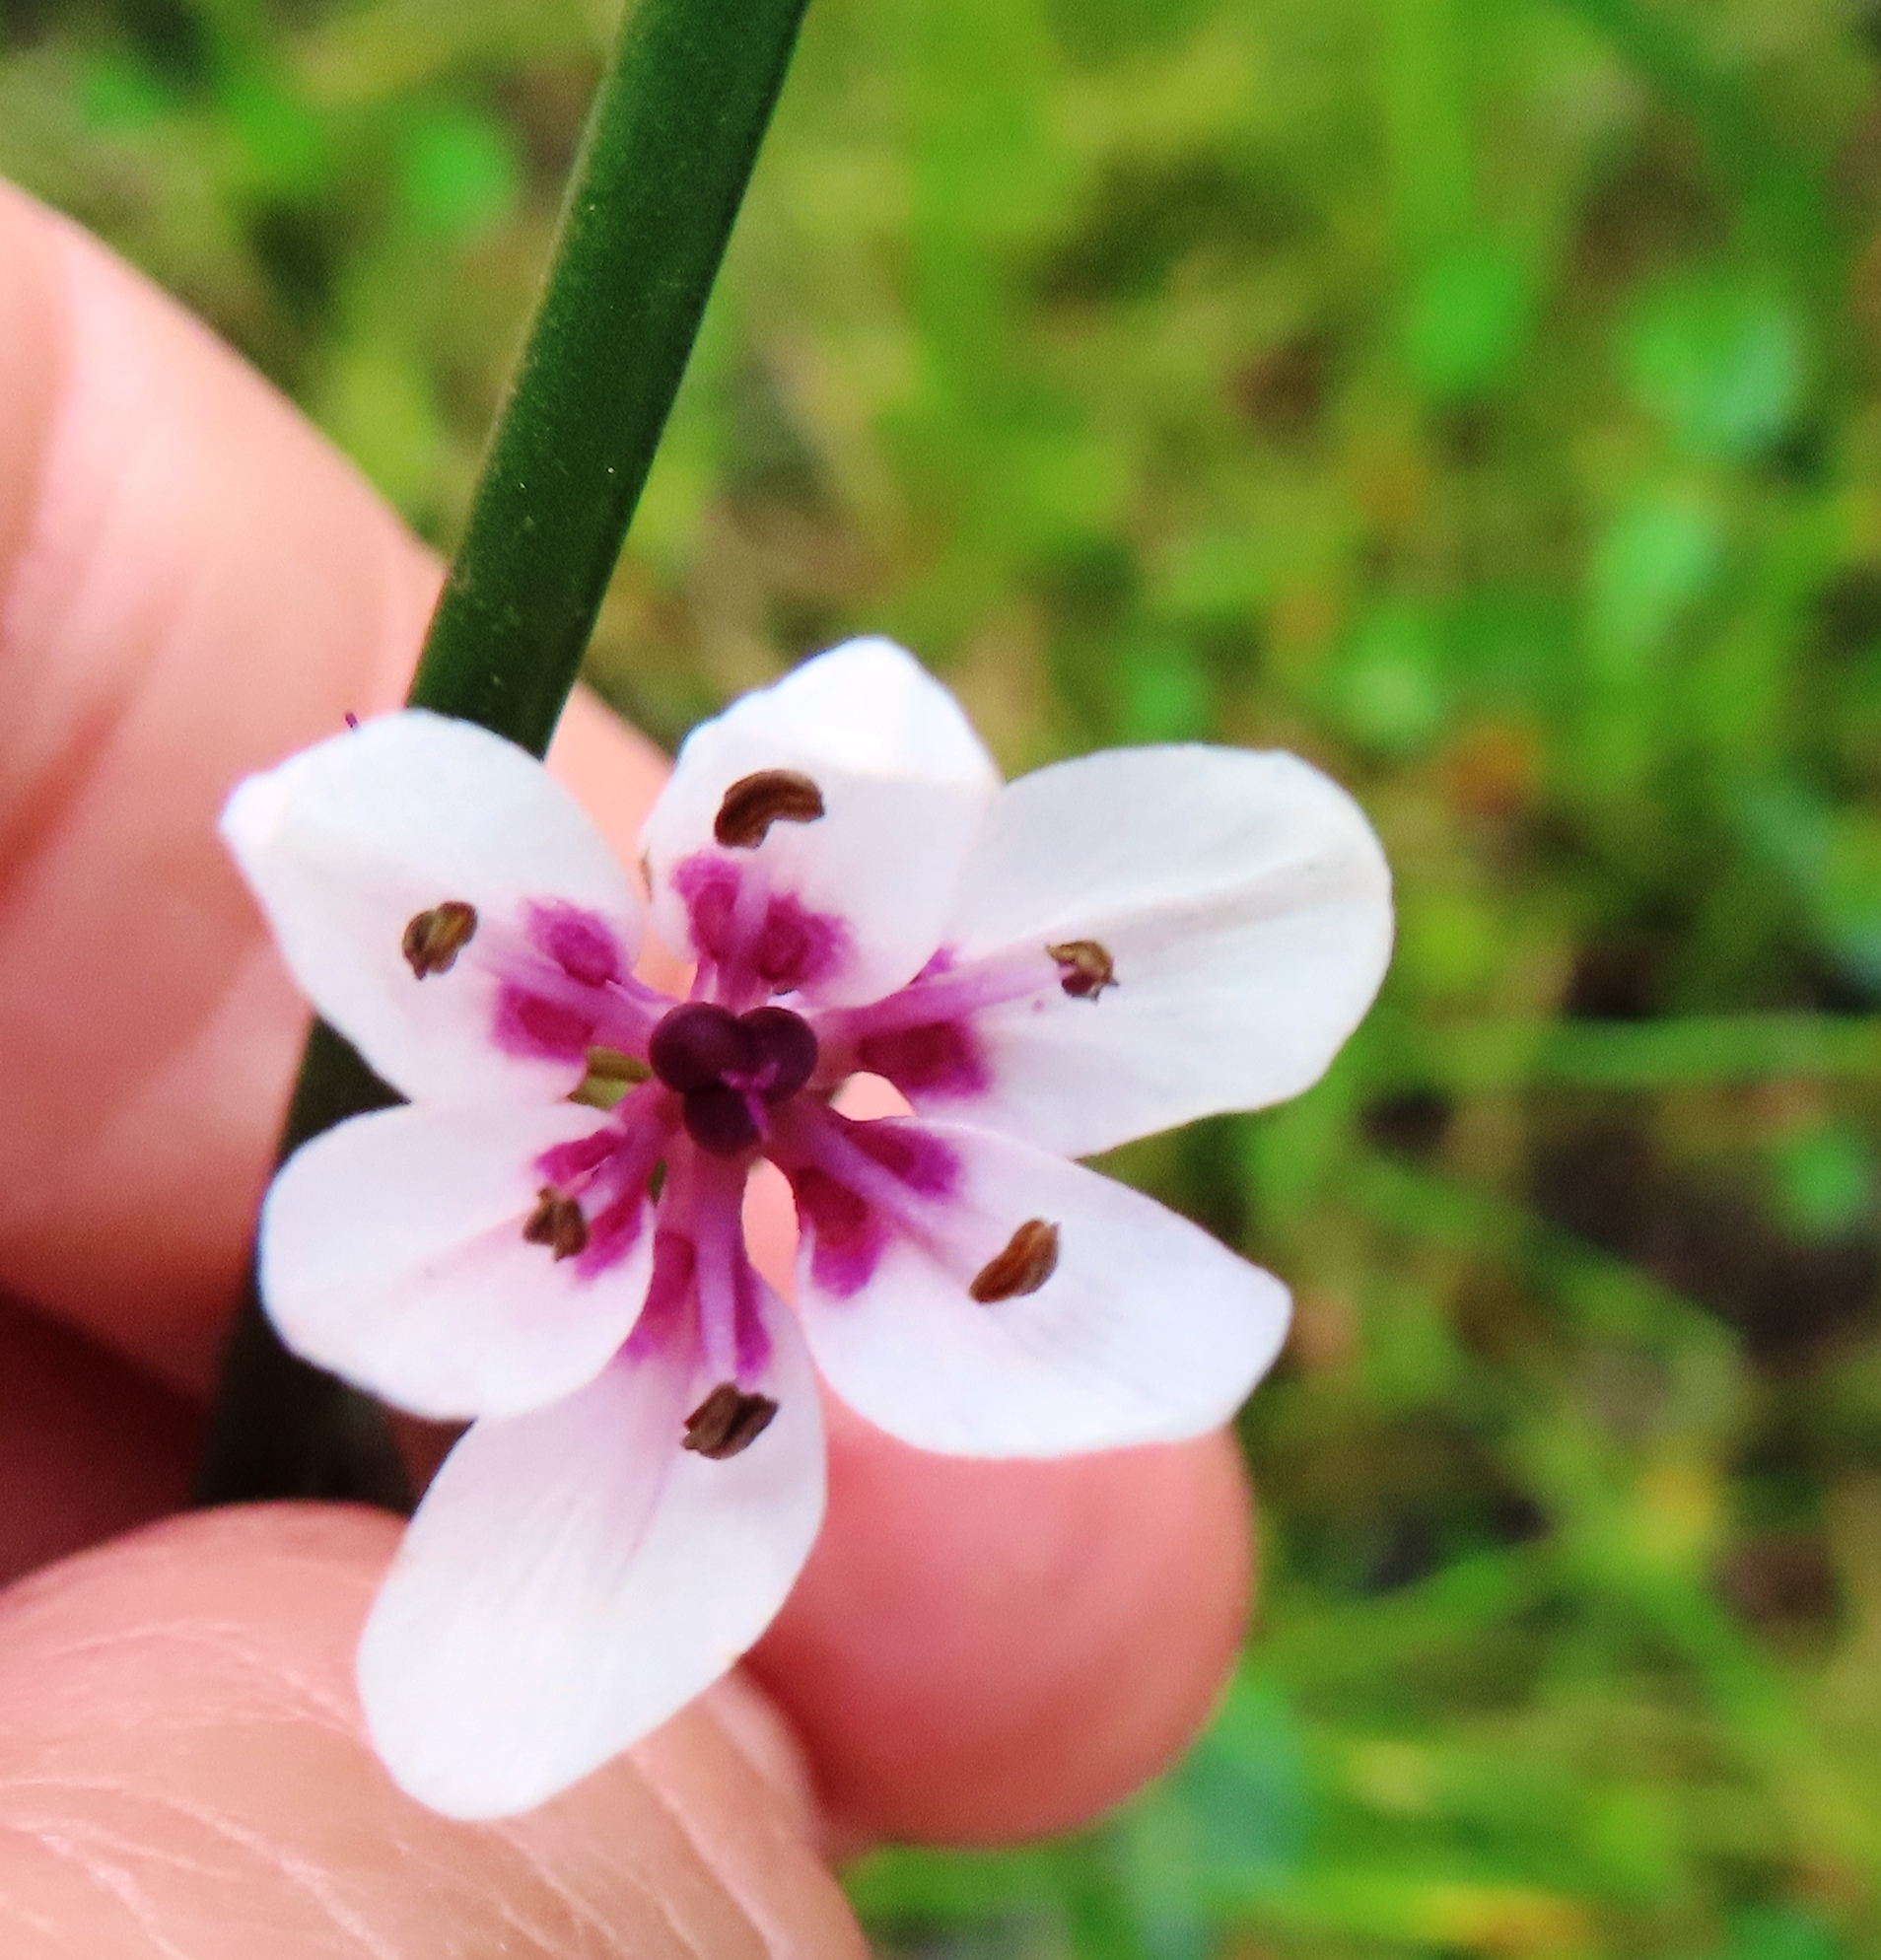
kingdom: Plantae
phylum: Tracheophyta
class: Liliopsida
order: Liliales
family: Colchicaceae
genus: Wurmbea
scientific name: Wurmbea stricta
